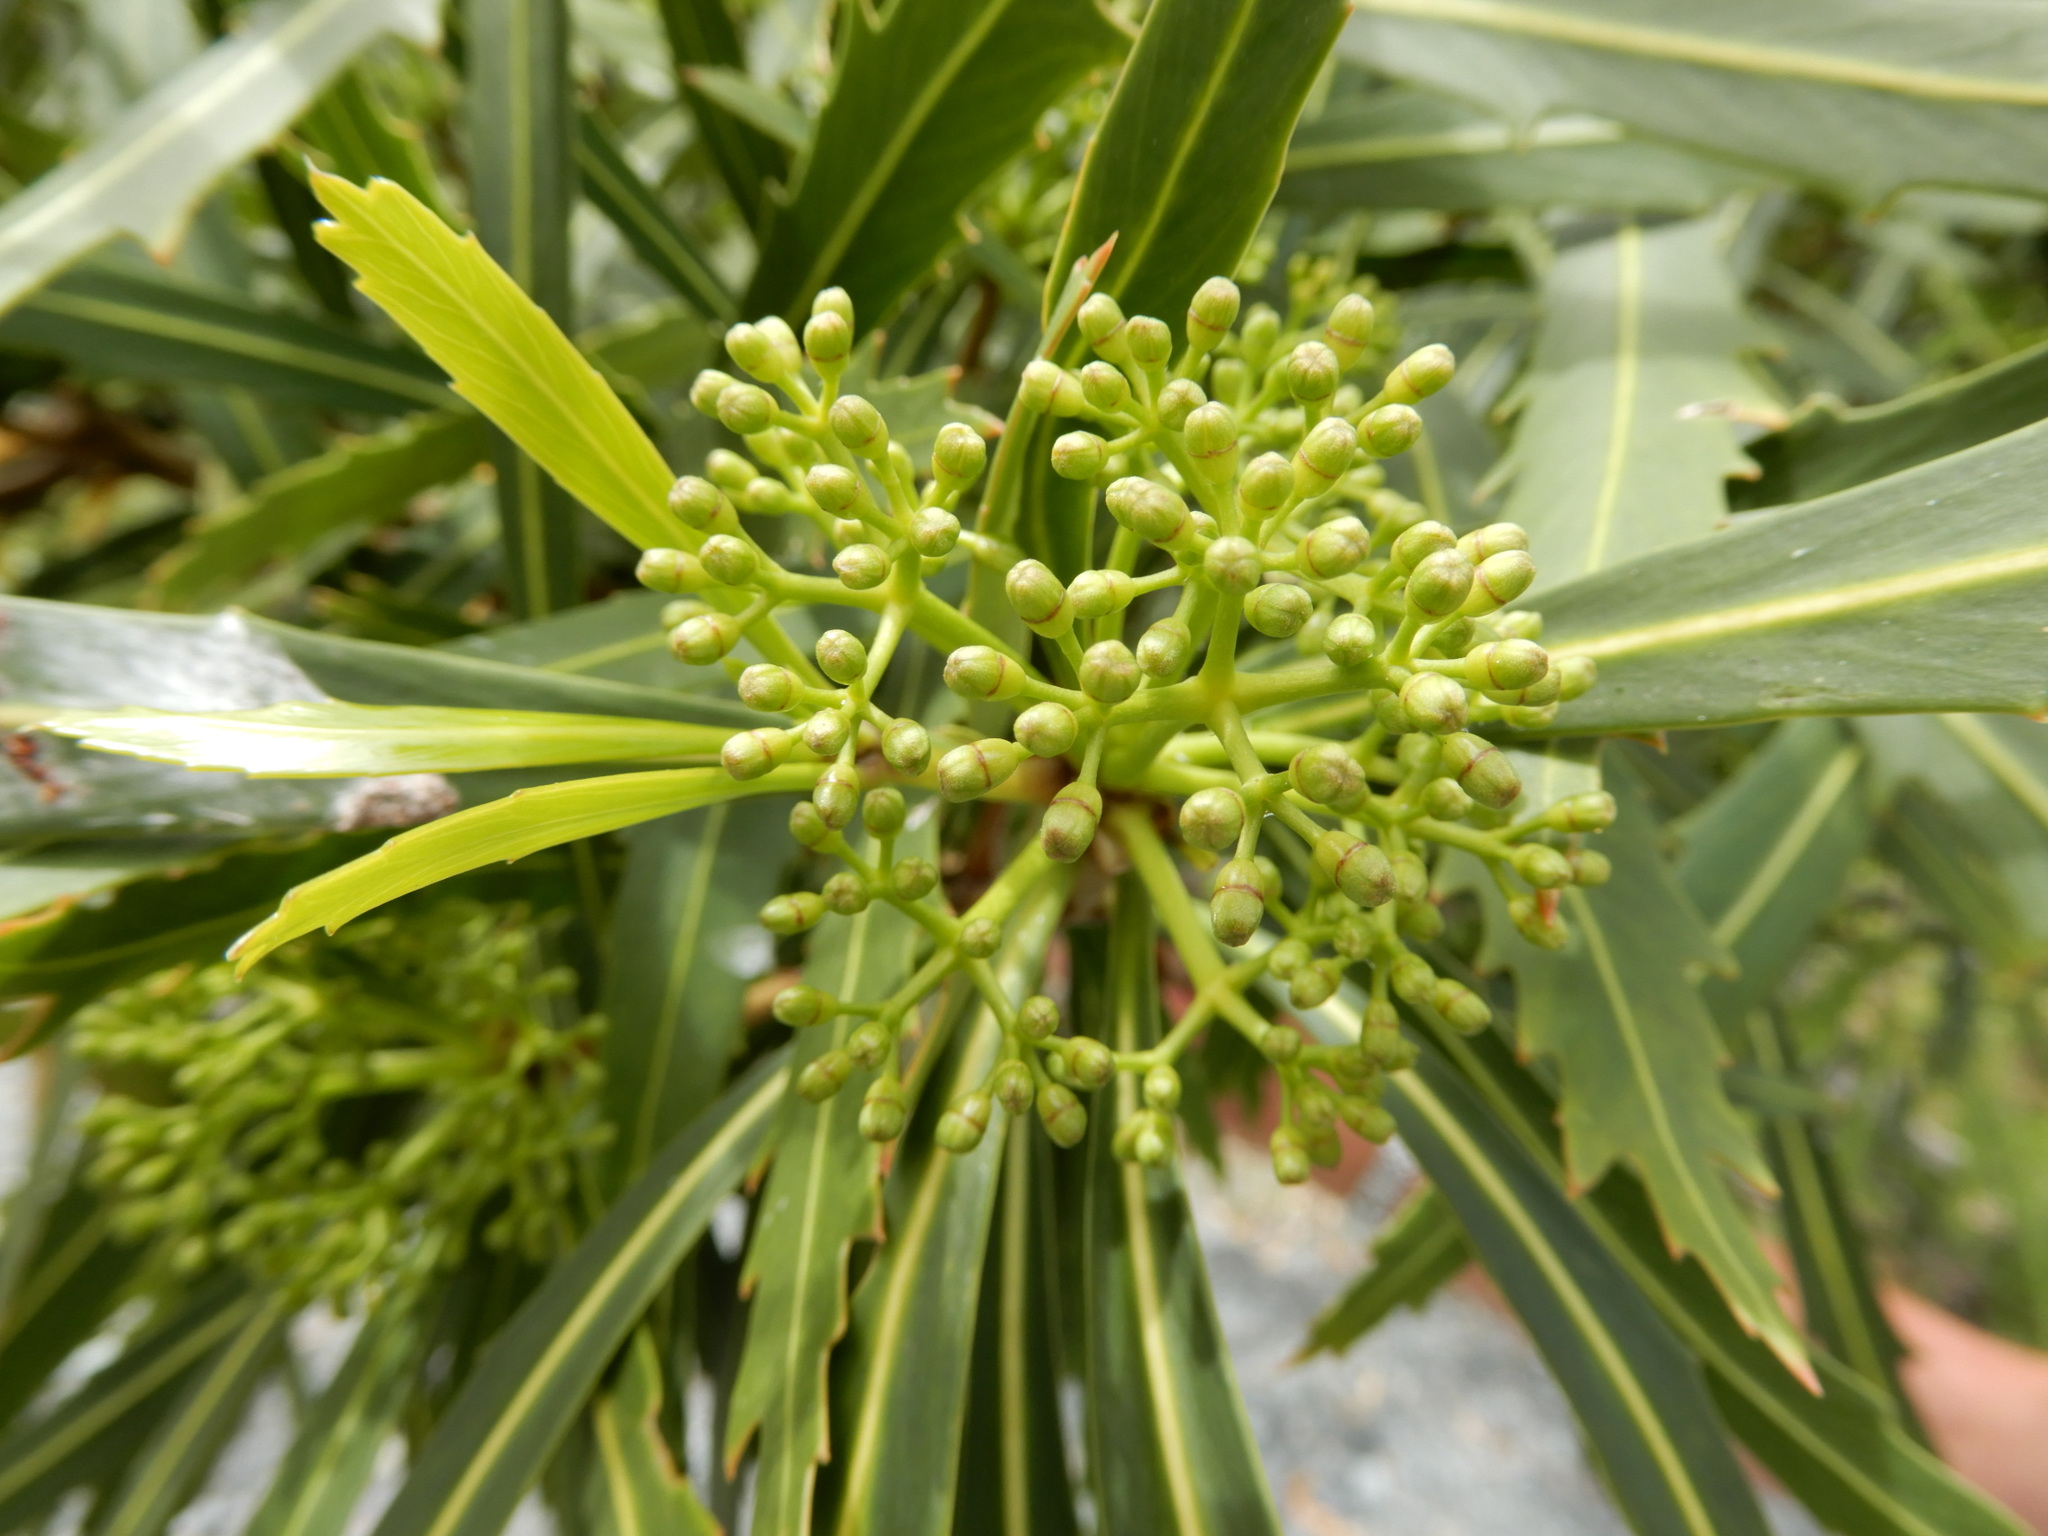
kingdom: Plantae
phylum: Tracheophyta
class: Magnoliopsida
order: Apiales
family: Araliaceae
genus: Pseudopanax
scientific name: Pseudopanax crassifolius
